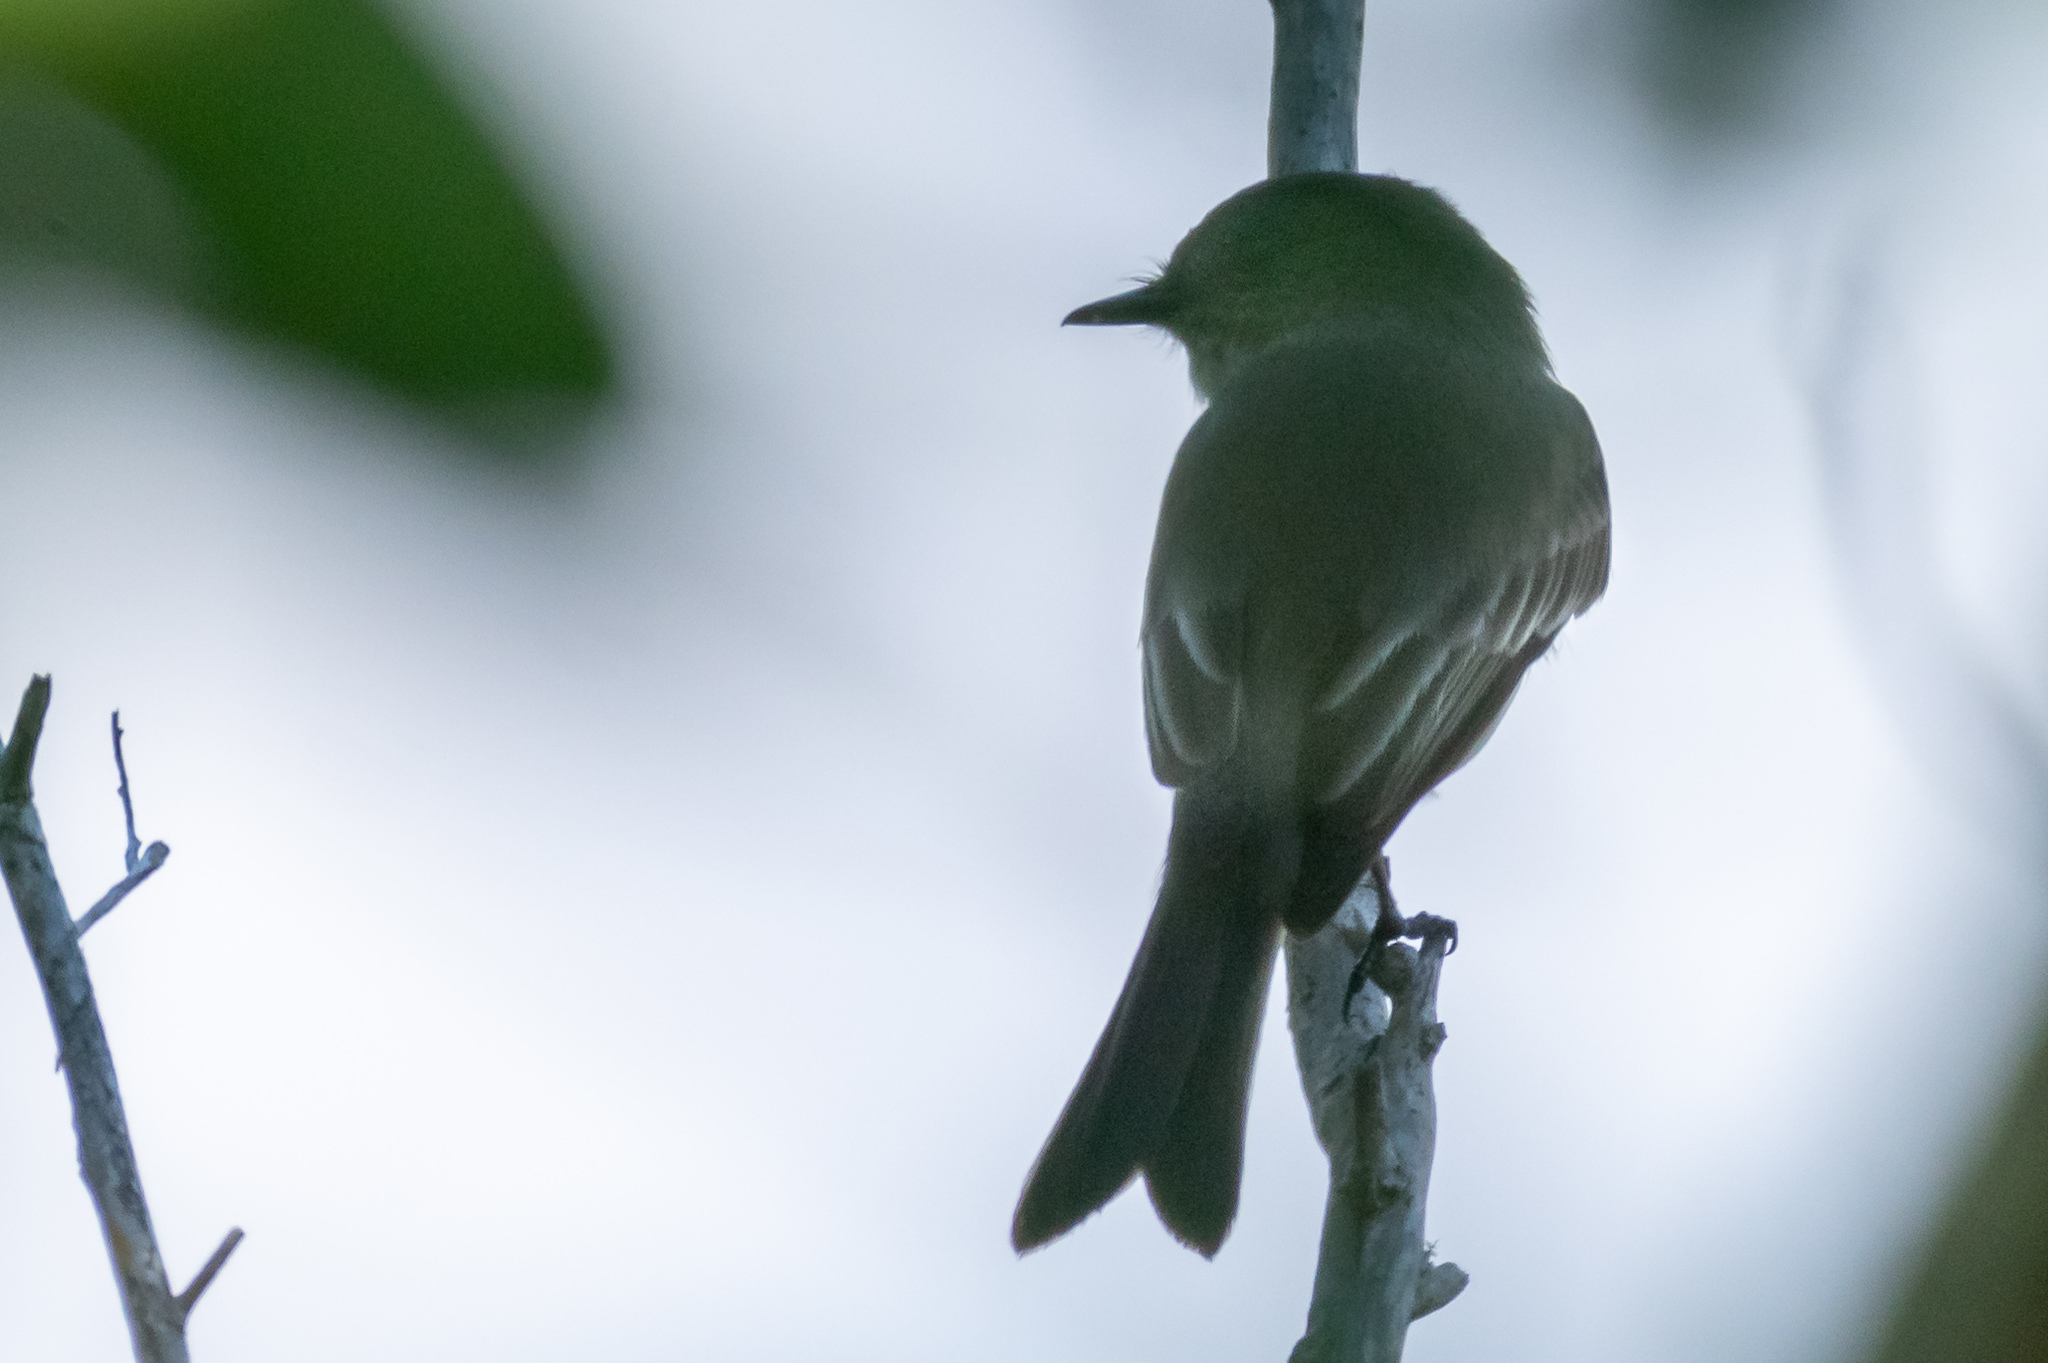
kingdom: Animalia
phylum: Chordata
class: Aves
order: Passeriformes
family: Tyrannidae
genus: Sayornis
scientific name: Sayornis phoebe
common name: Eastern phoebe
